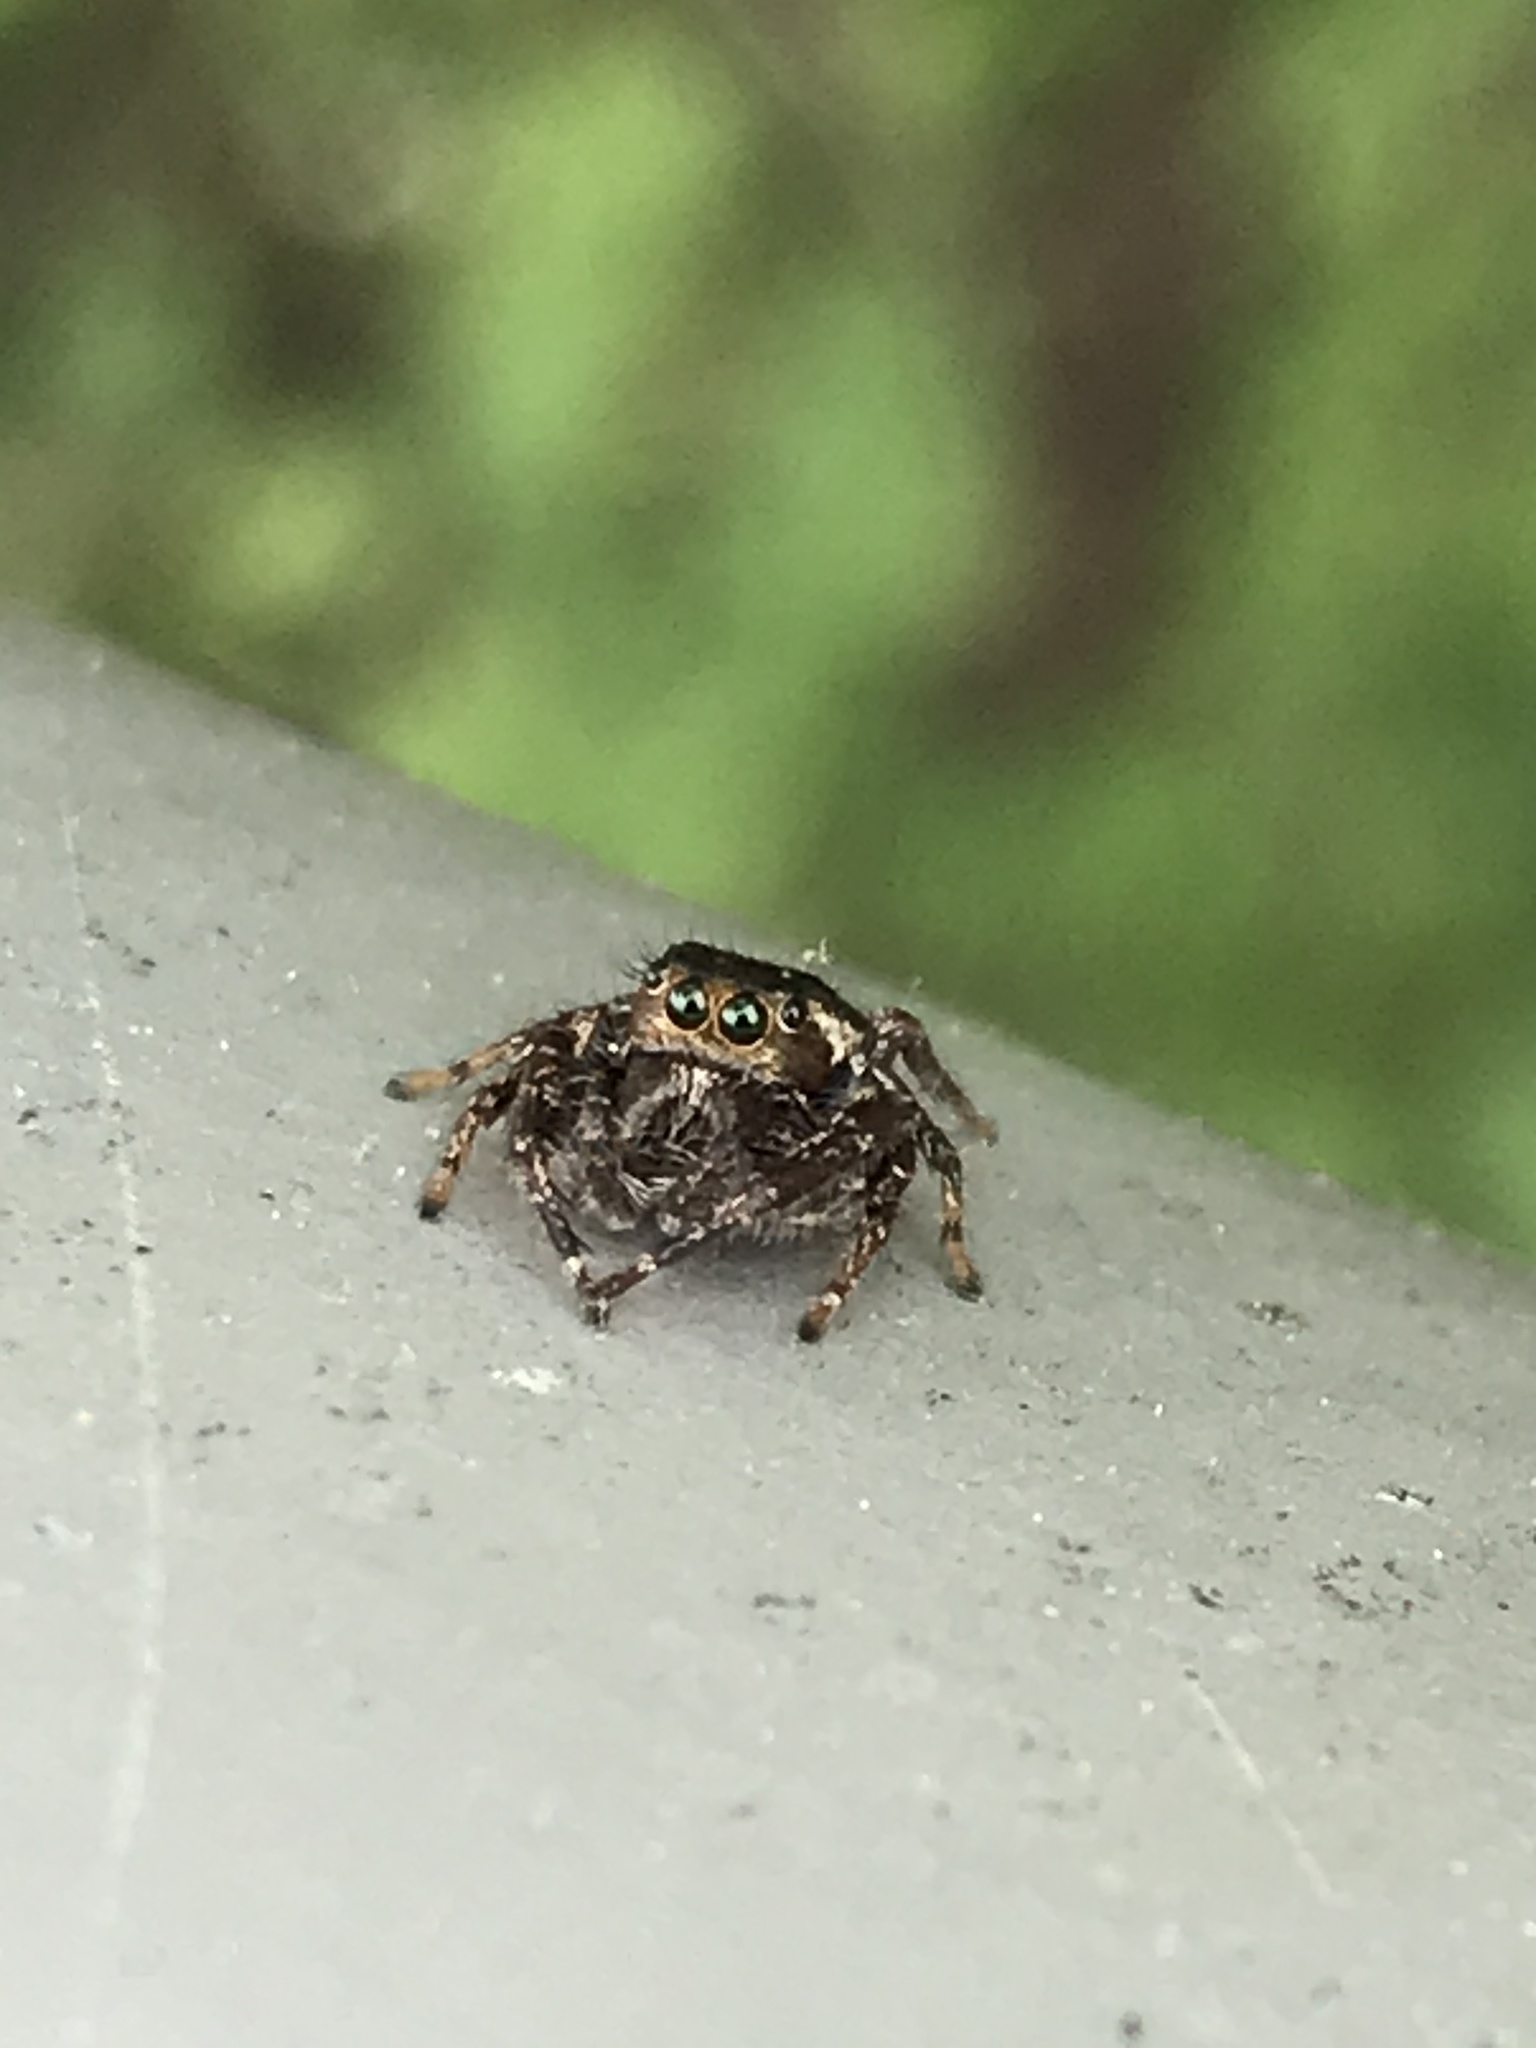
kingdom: Animalia
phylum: Arthropoda
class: Arachnida
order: Araneae
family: Salticidae
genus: Eris
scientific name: Eris militaris
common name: Bronze jumper
